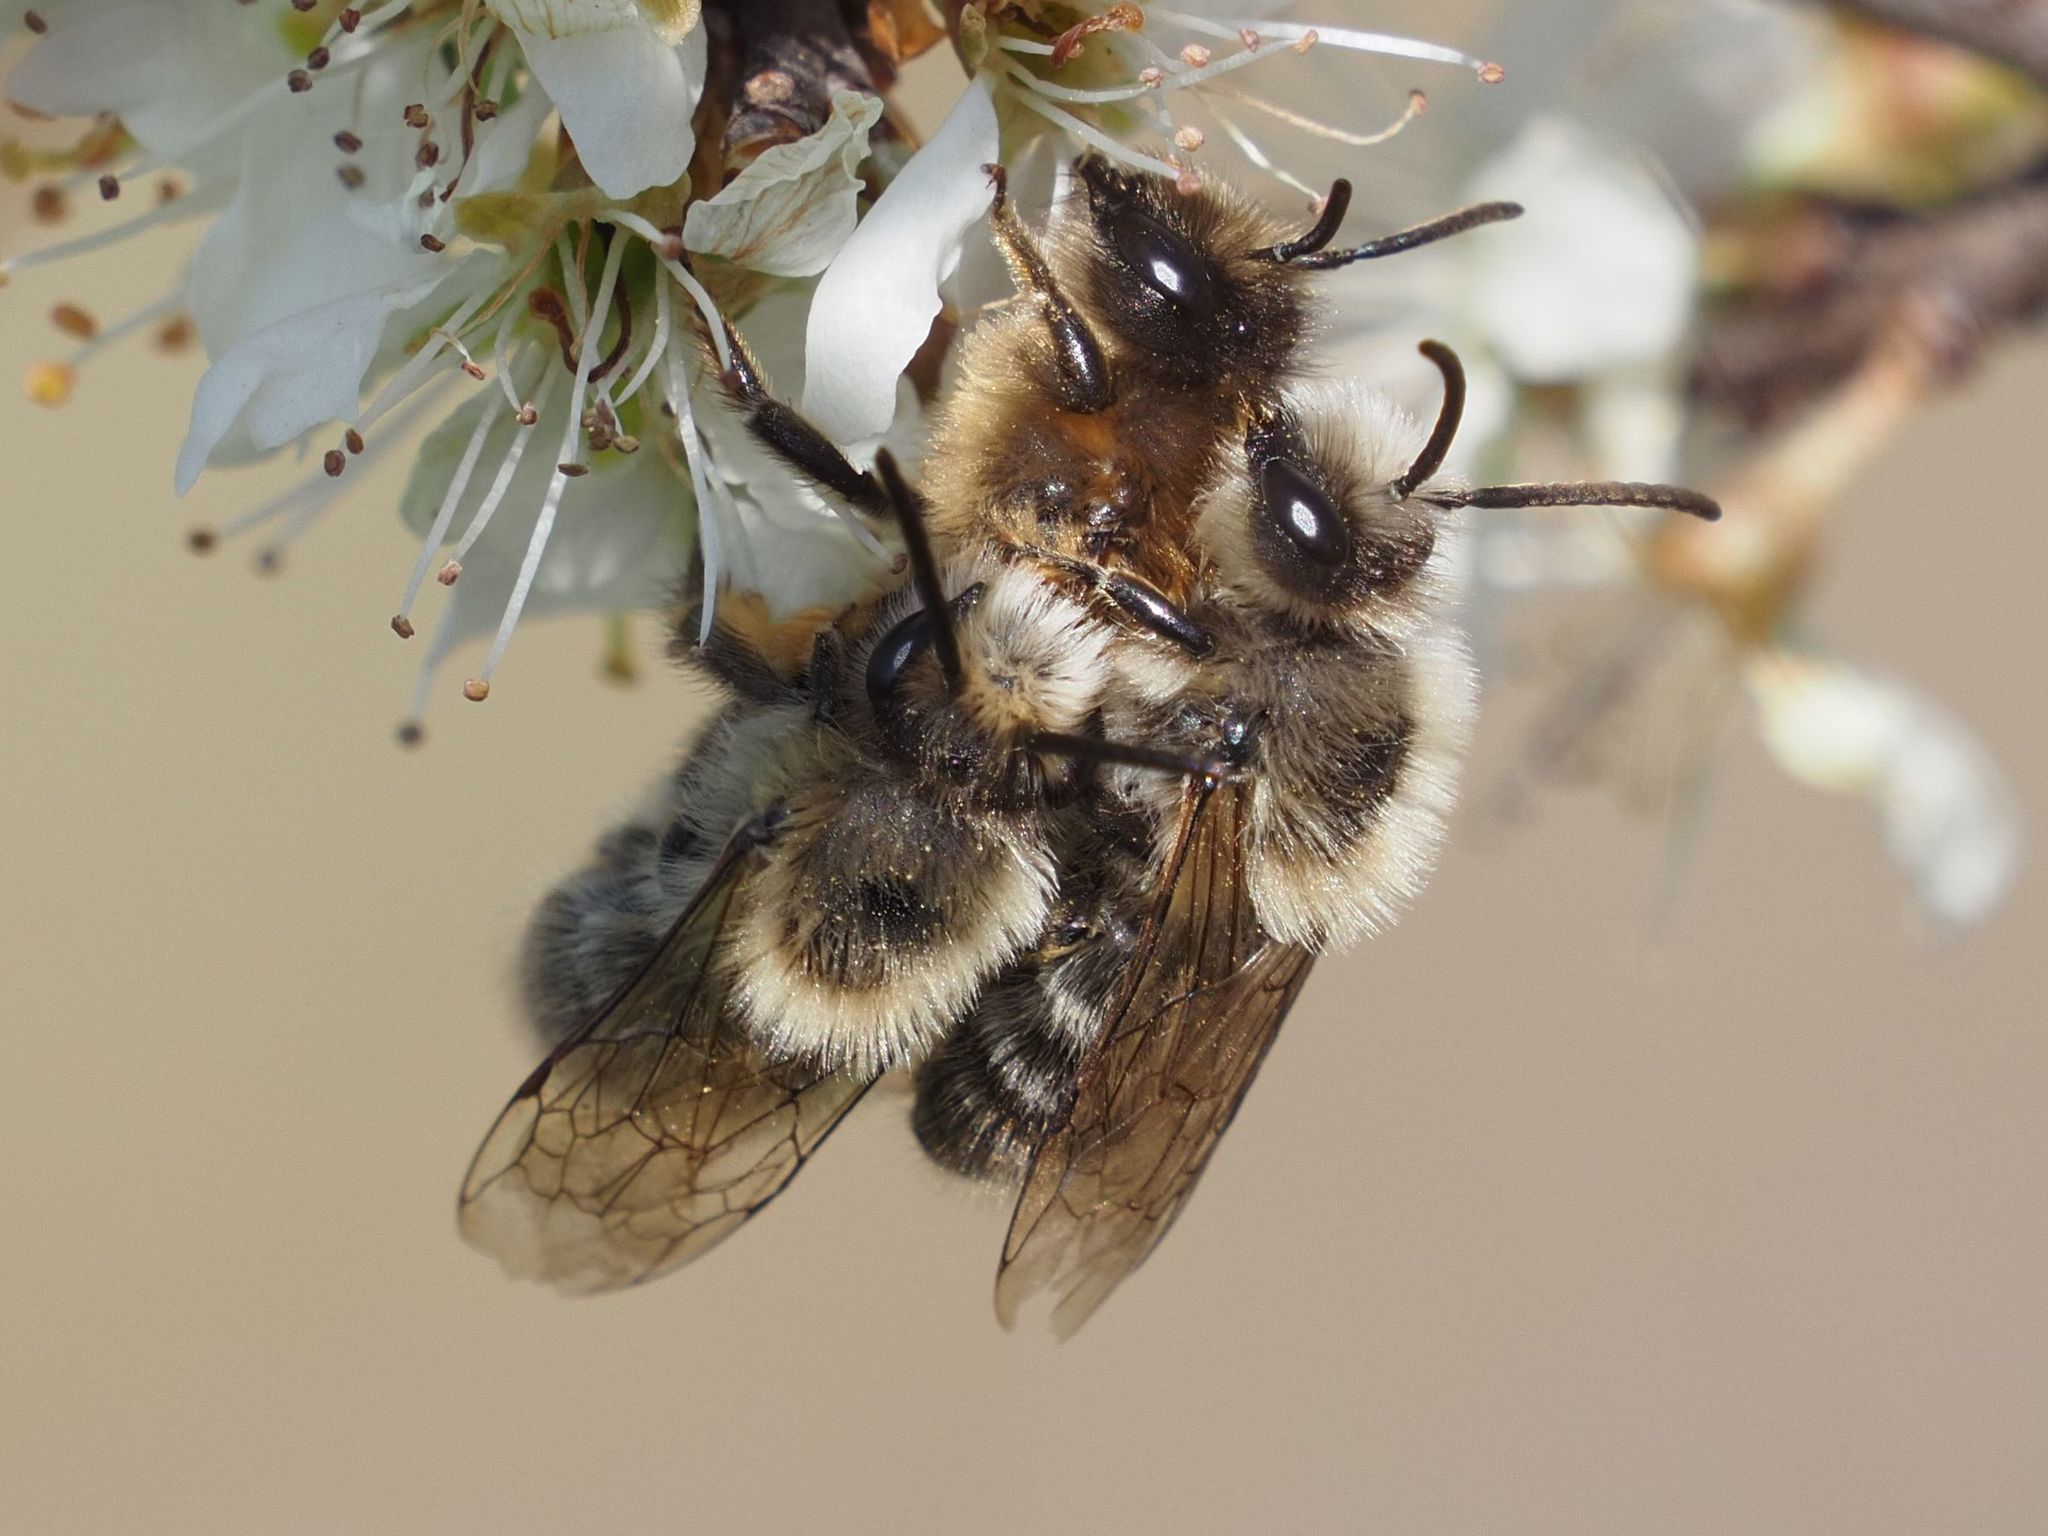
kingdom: Animalia
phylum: Arthropoda
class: Insecta
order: Hymenoptera
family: Colletidae
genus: Colletes
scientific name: Colletes cunicularius
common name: Early colletes
